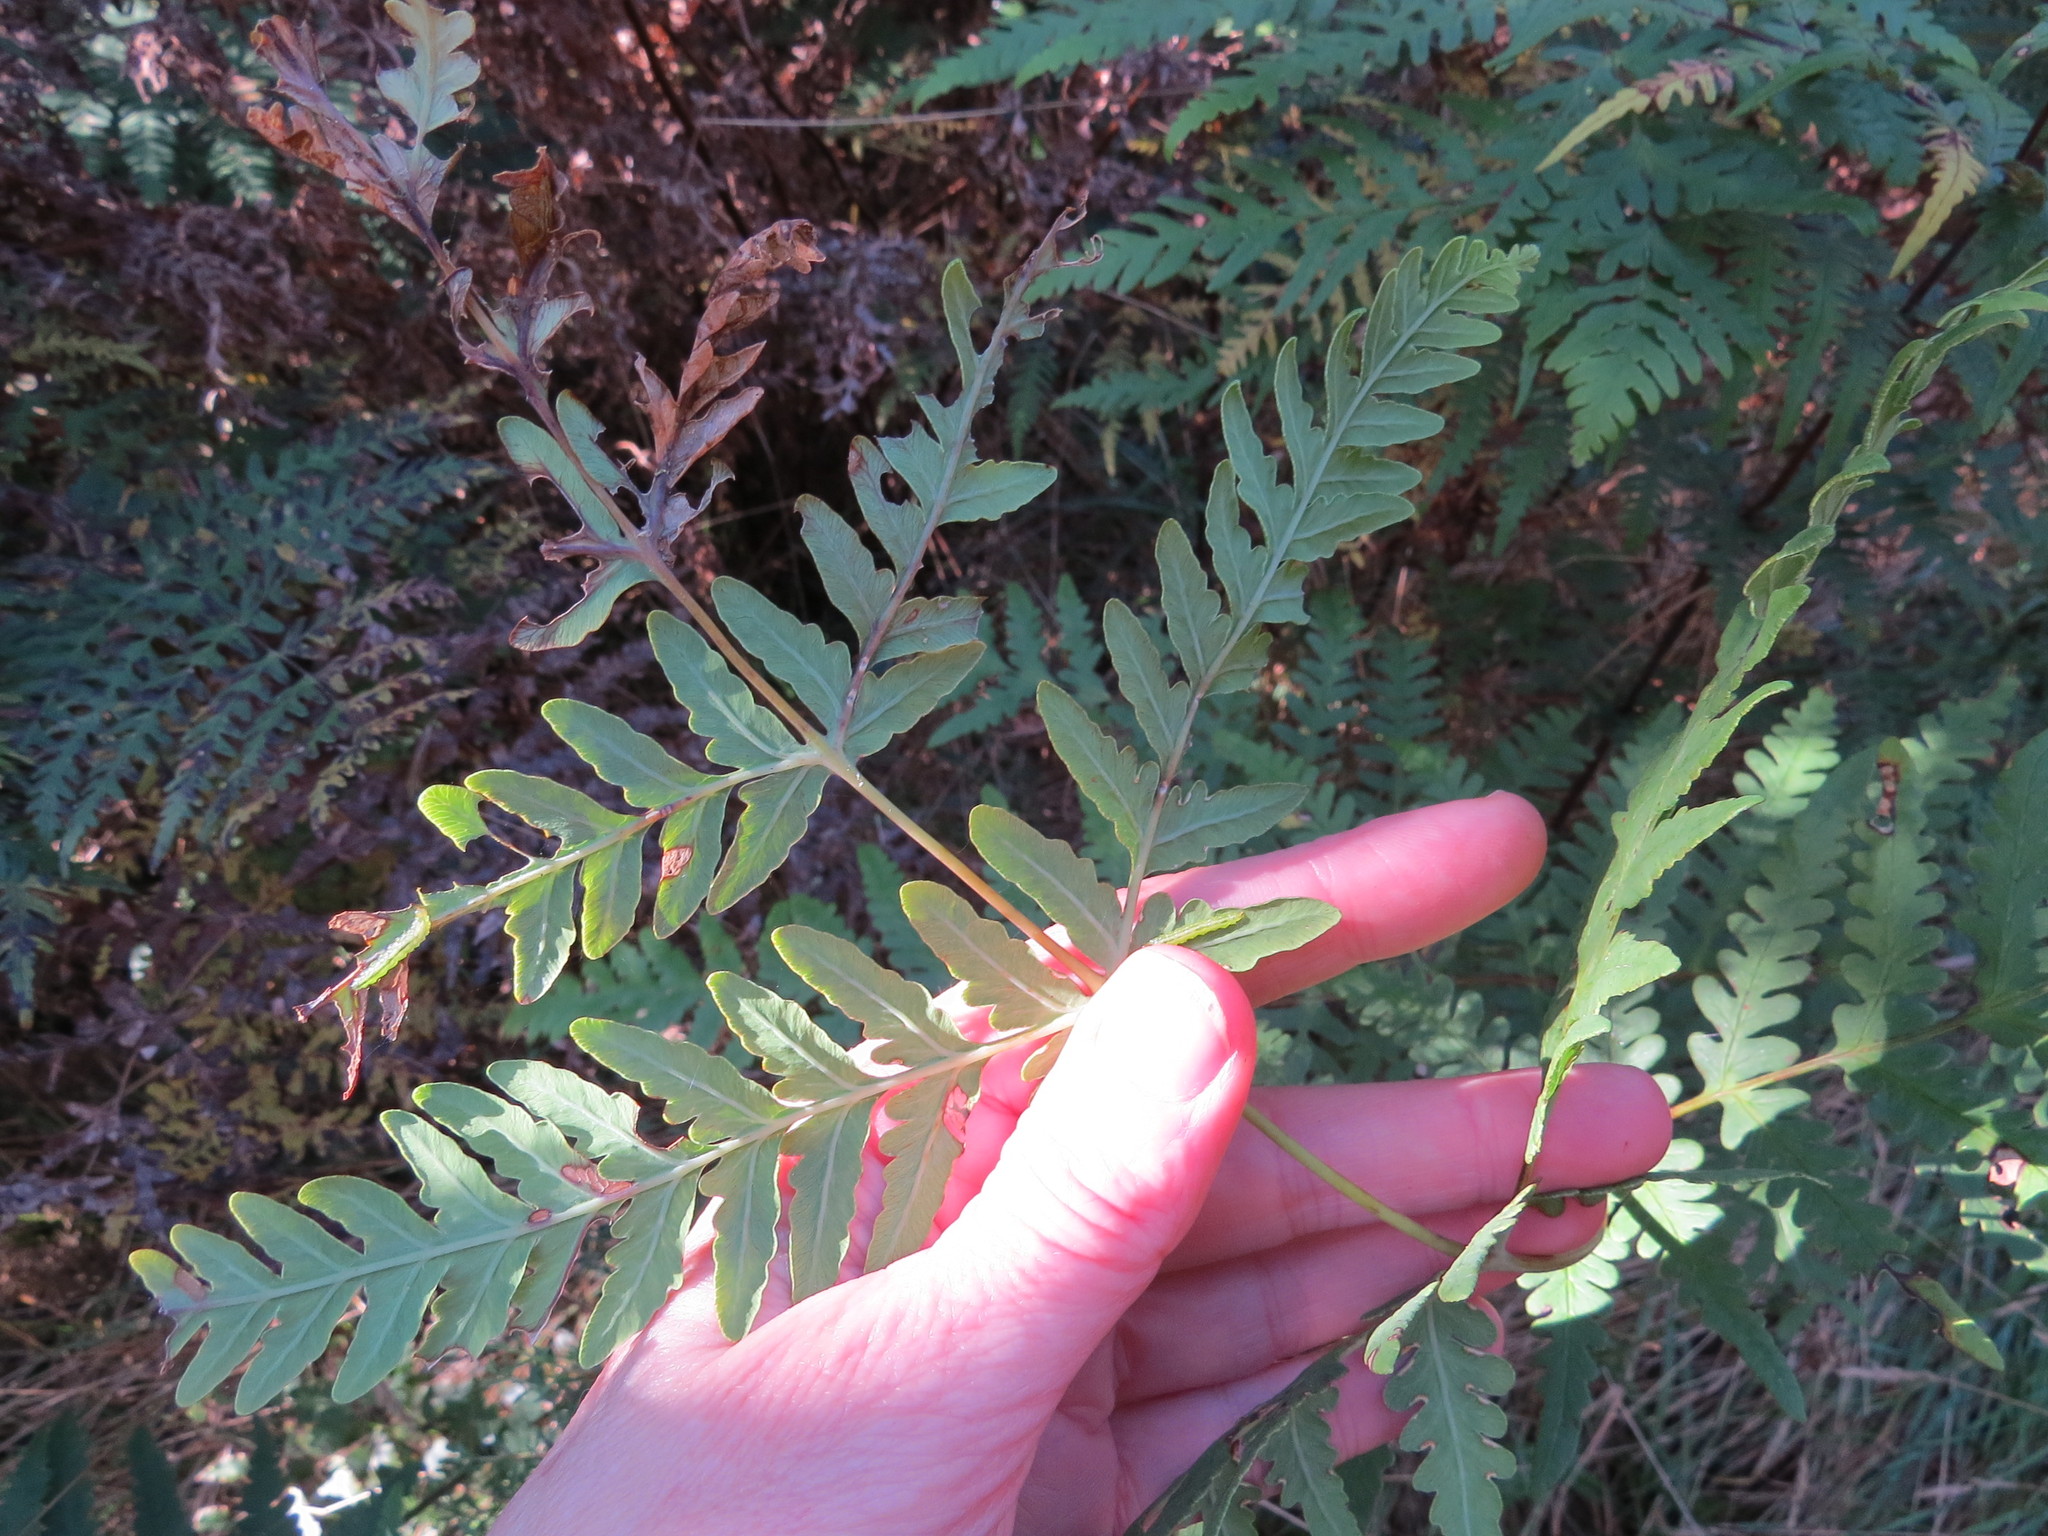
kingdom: Plantae
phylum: Tracheophyta
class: Polypodiopsida
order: Polypodiales
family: Dennstaedtiaceae
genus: Histiopteris
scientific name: Histiopteris incisa
